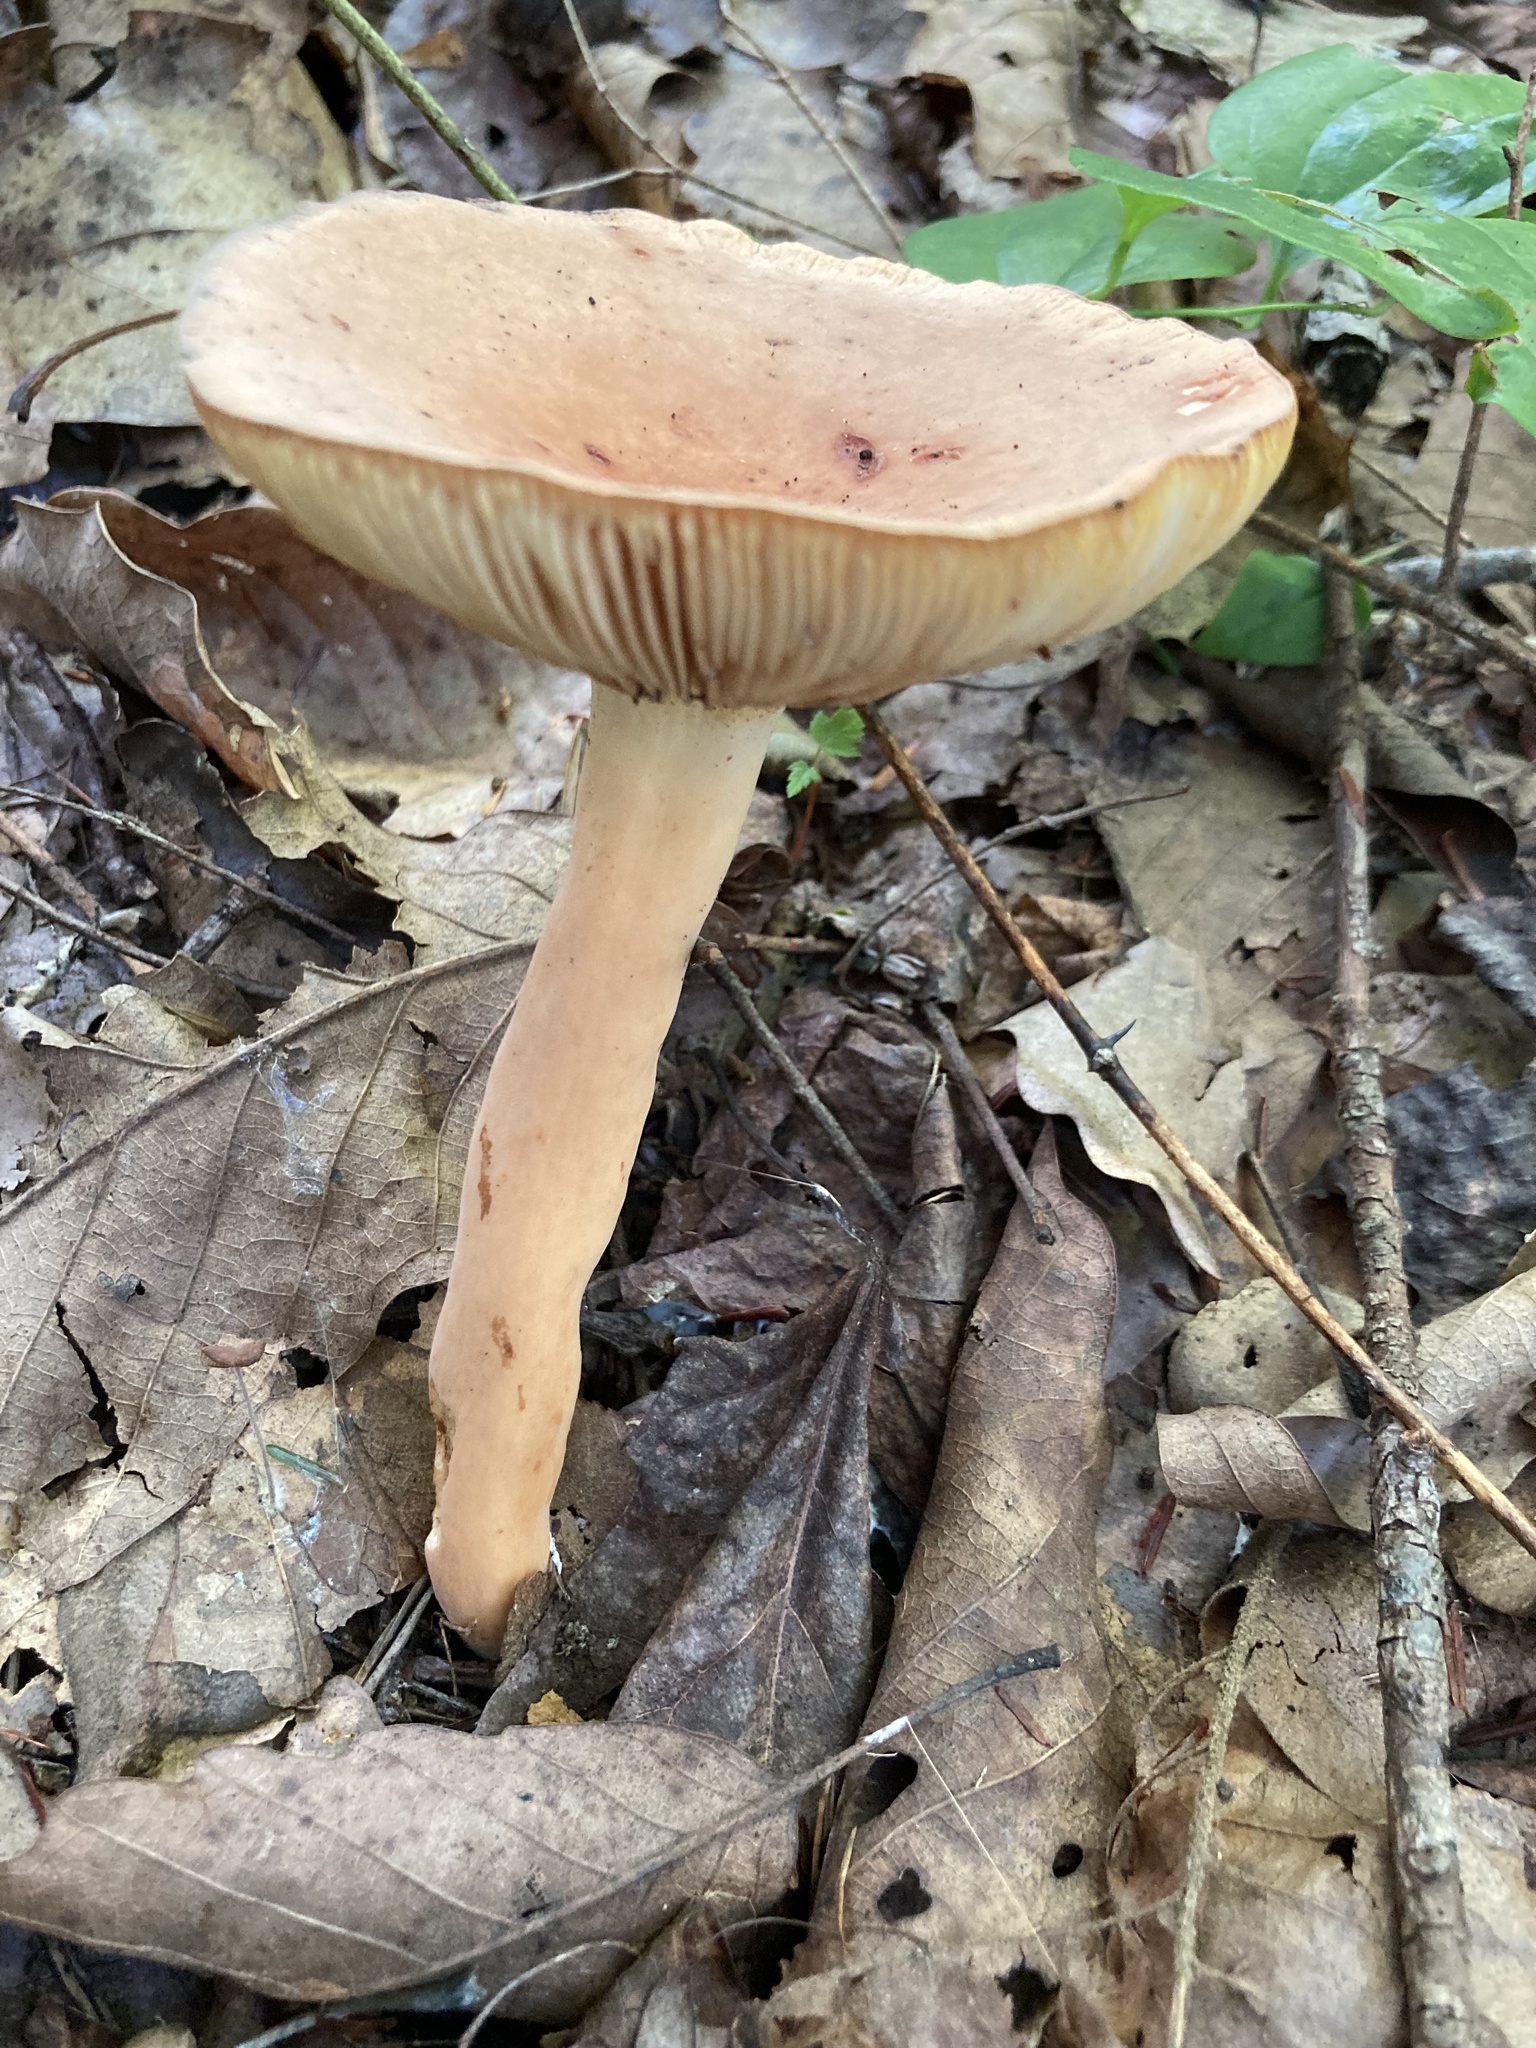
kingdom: Fungi
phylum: Basidiomycota
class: Agaricomycetes
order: Russulales
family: Russulaceae
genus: Lactifluus
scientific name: Lactifluus volemus
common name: Fishy milkcap
